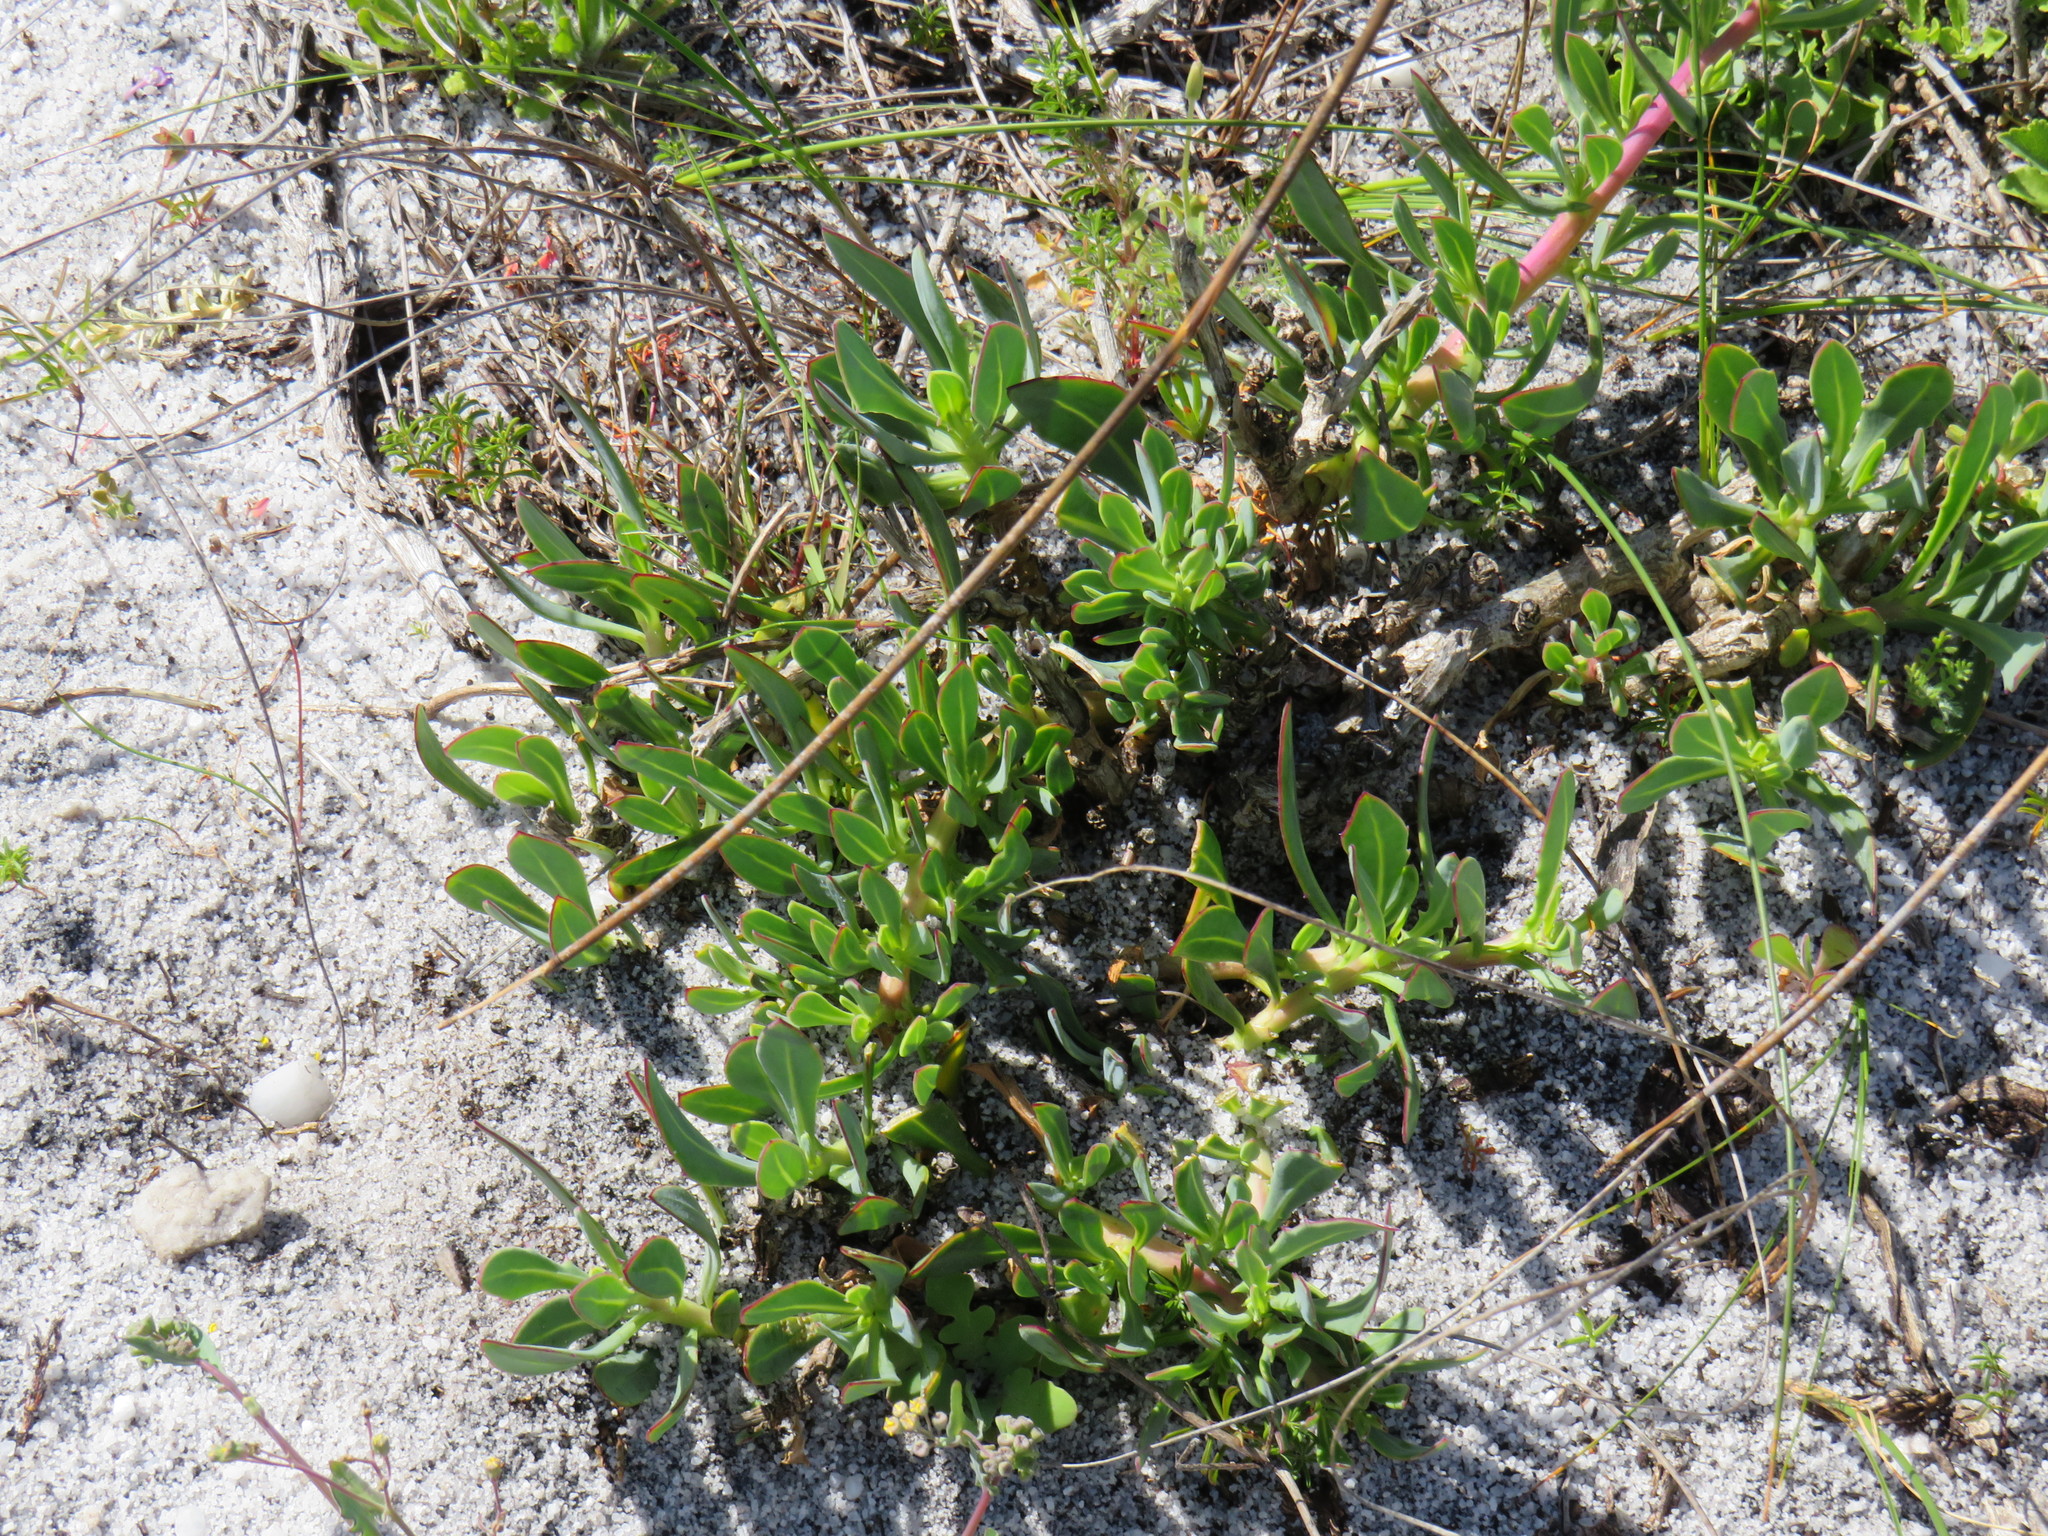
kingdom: Plantae
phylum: Tracheophyta
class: Magnoliopsida
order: Asterales
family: Asteraceae
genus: Othonna
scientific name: Othonna arborescens
